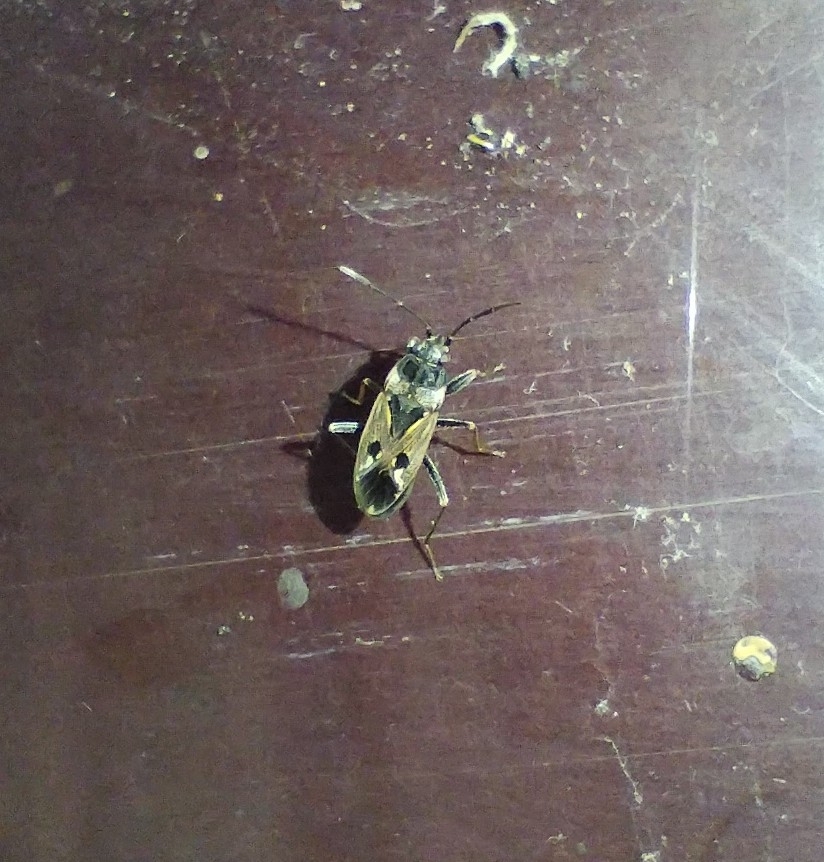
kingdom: Animalia
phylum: Arthropoda
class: Insecta
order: Hemiptera
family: Rhyparochromidae
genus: Rhyparochromus
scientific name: Rhyparochromus vulgaris
